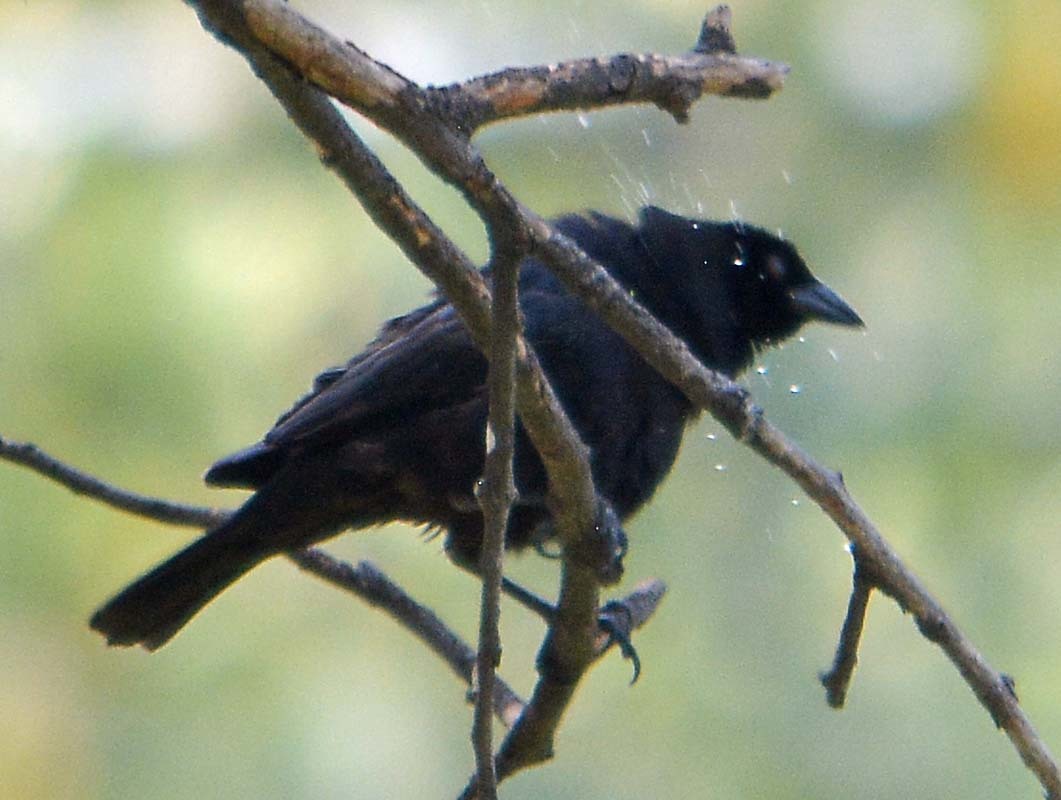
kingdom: Animalia
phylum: Chordata
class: Aves
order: Passeriformes
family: Icteridae
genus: Molothrus
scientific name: Molothrus aeneus
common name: Bronzed cowbird
